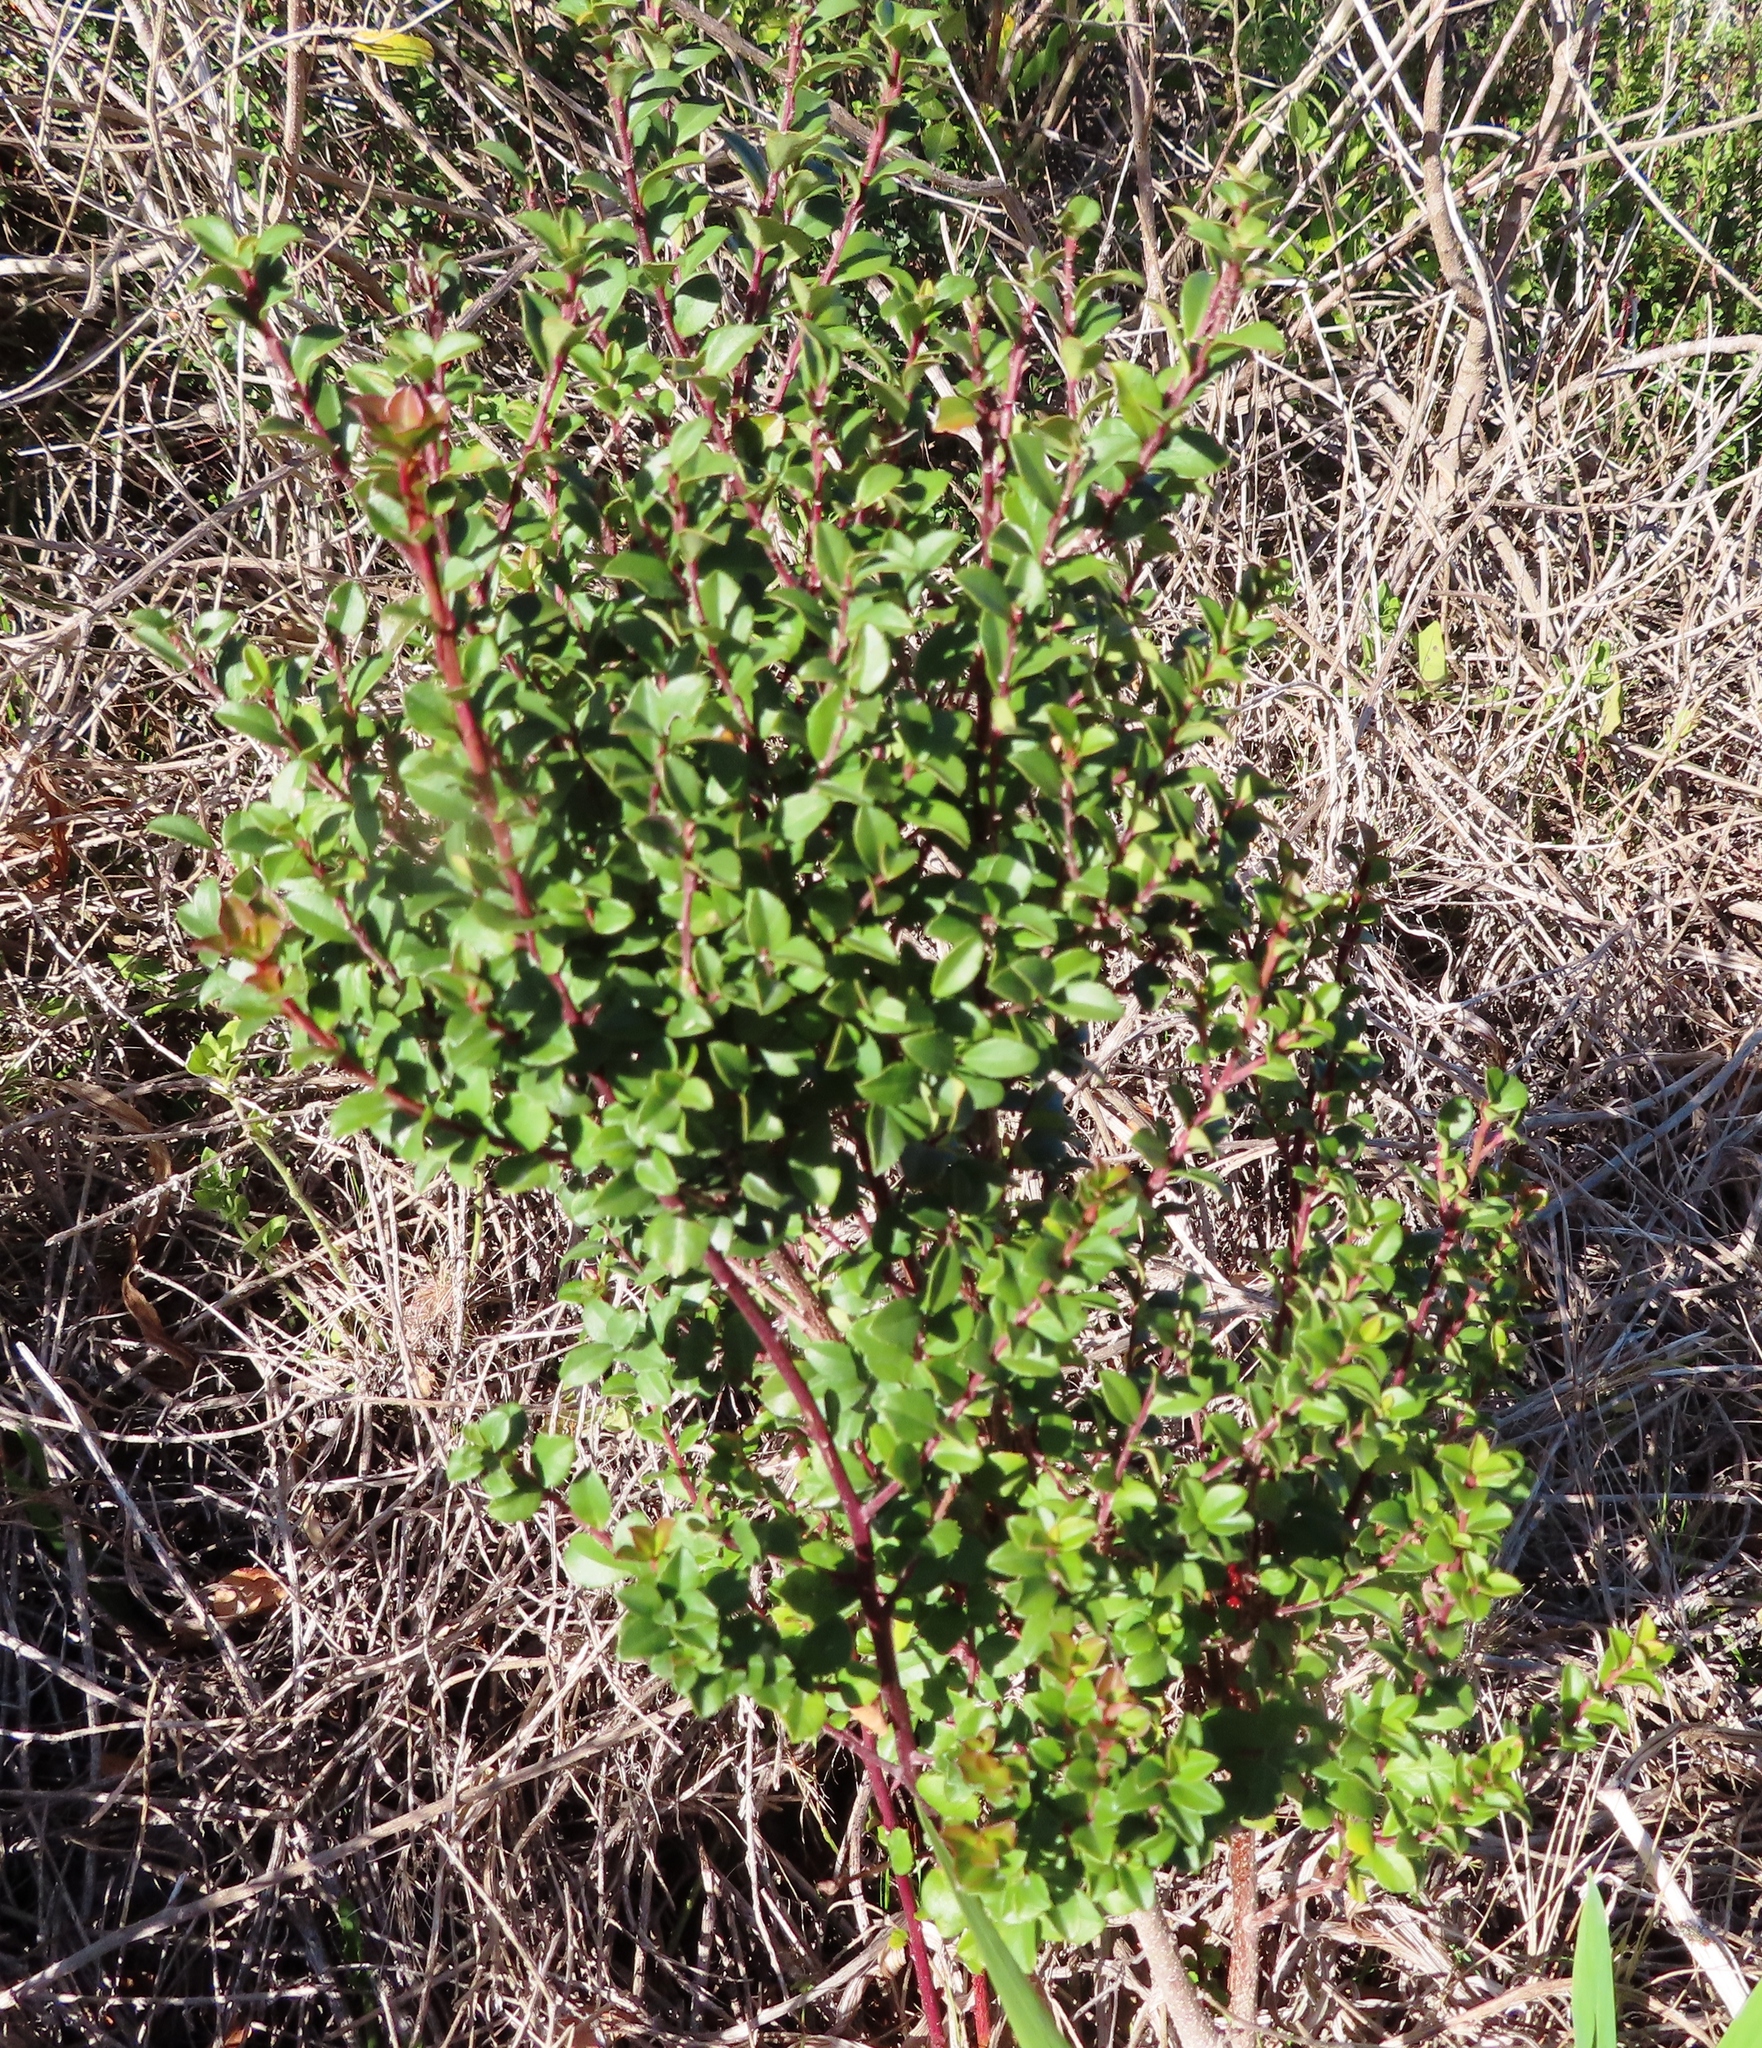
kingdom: Plantae
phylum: Tracheophyta
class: Magnoliopsida
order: Ericales
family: Primulaceae
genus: Myrsine
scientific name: Myrsine africana
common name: African-boxwood
